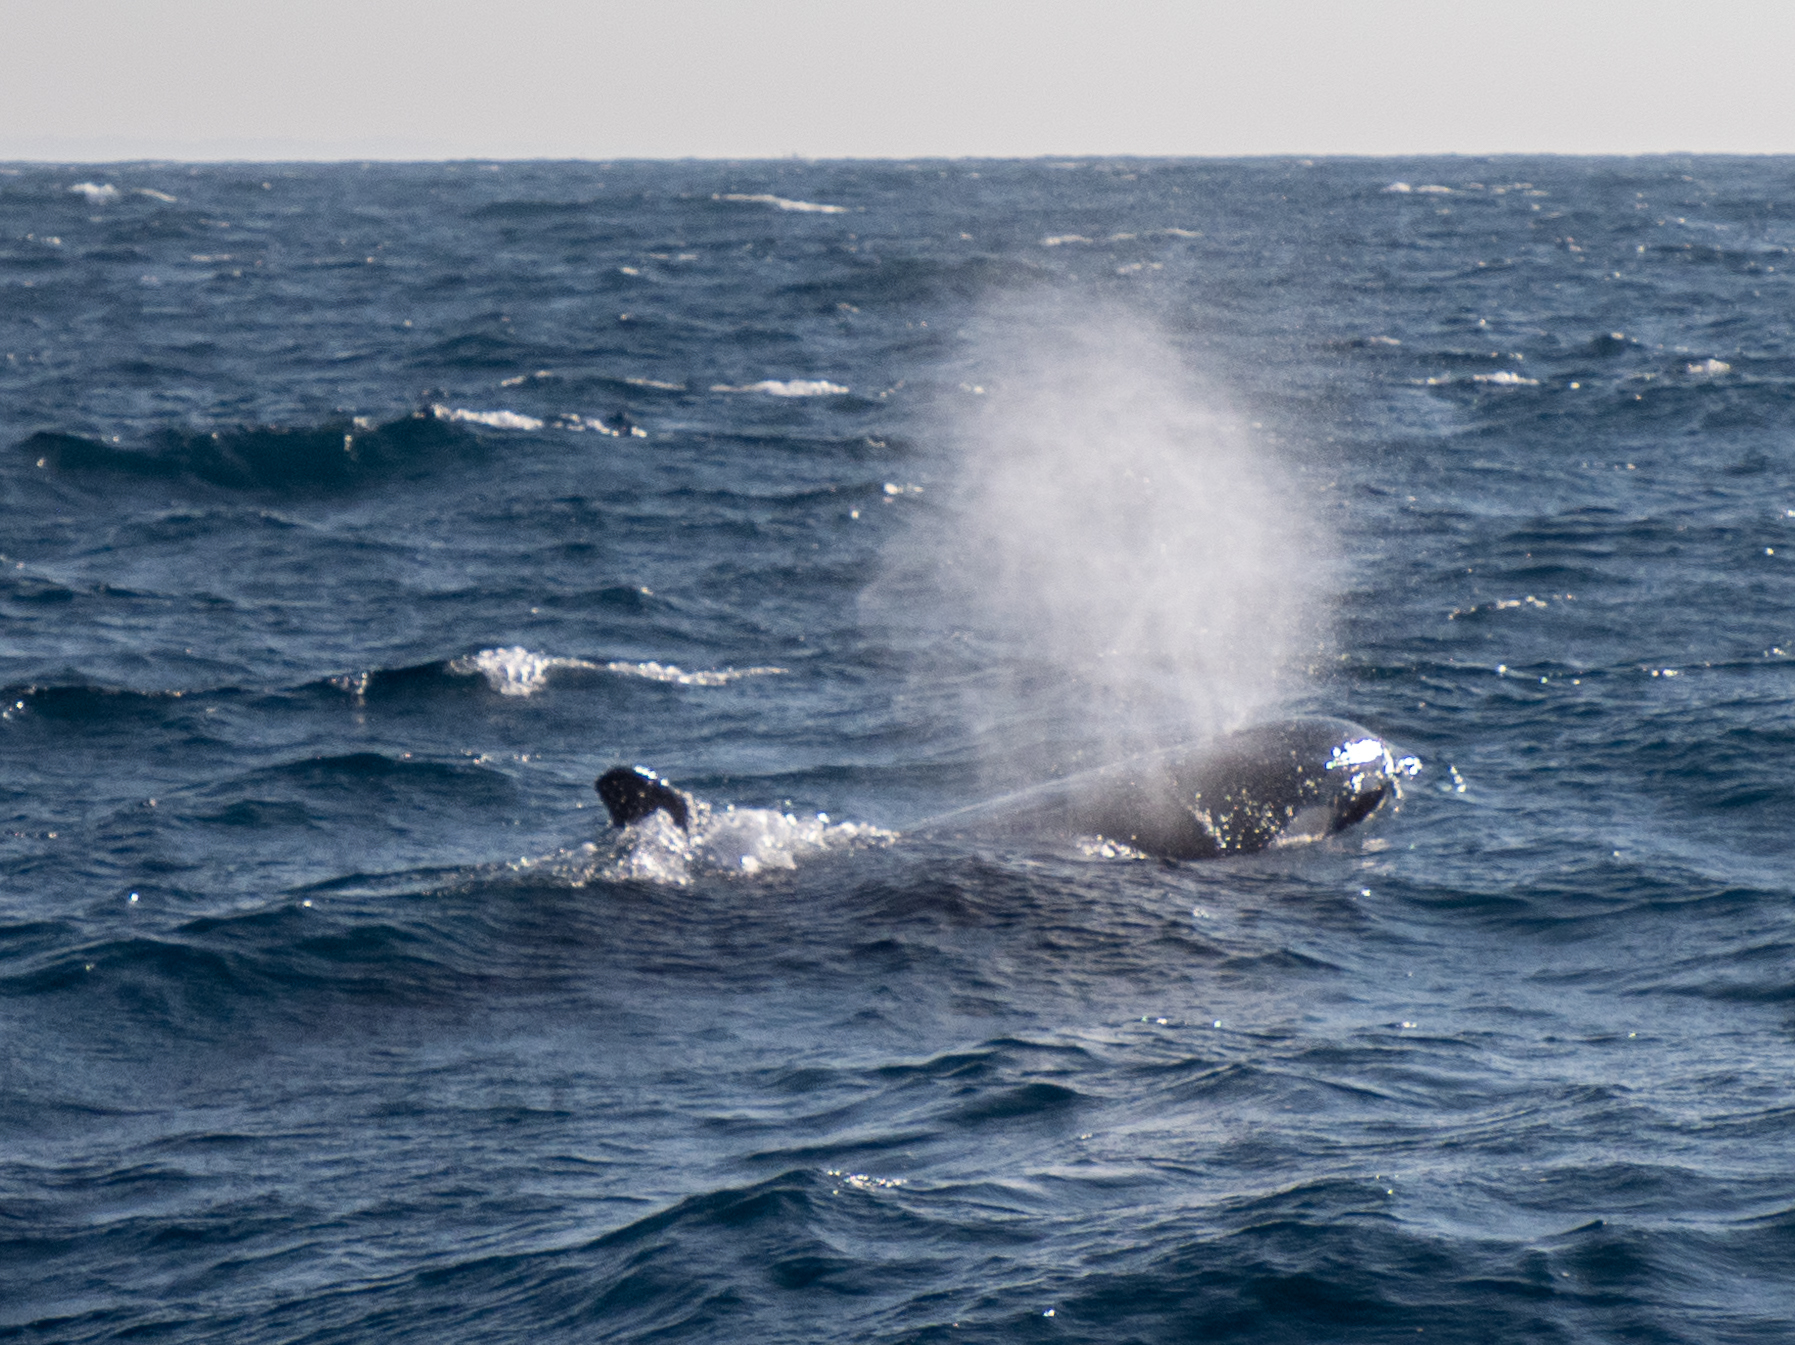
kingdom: Animalia
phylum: Chordata
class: Mammalia
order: Cetacea
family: Delphinidae
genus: Orcinus
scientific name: Orcinus orca
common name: Killer whale
